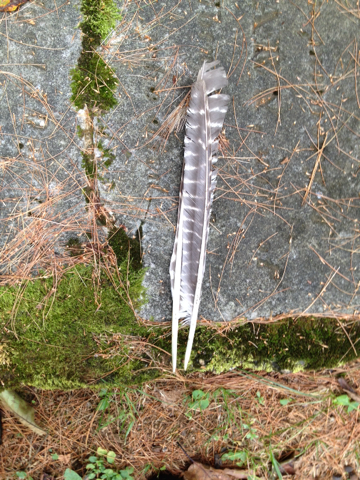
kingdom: Animalia
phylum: Chordata
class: Aves
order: Galliformes
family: Phasianidae
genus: Meleagris
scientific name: Meleagris gallopavo
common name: Wild turkey
